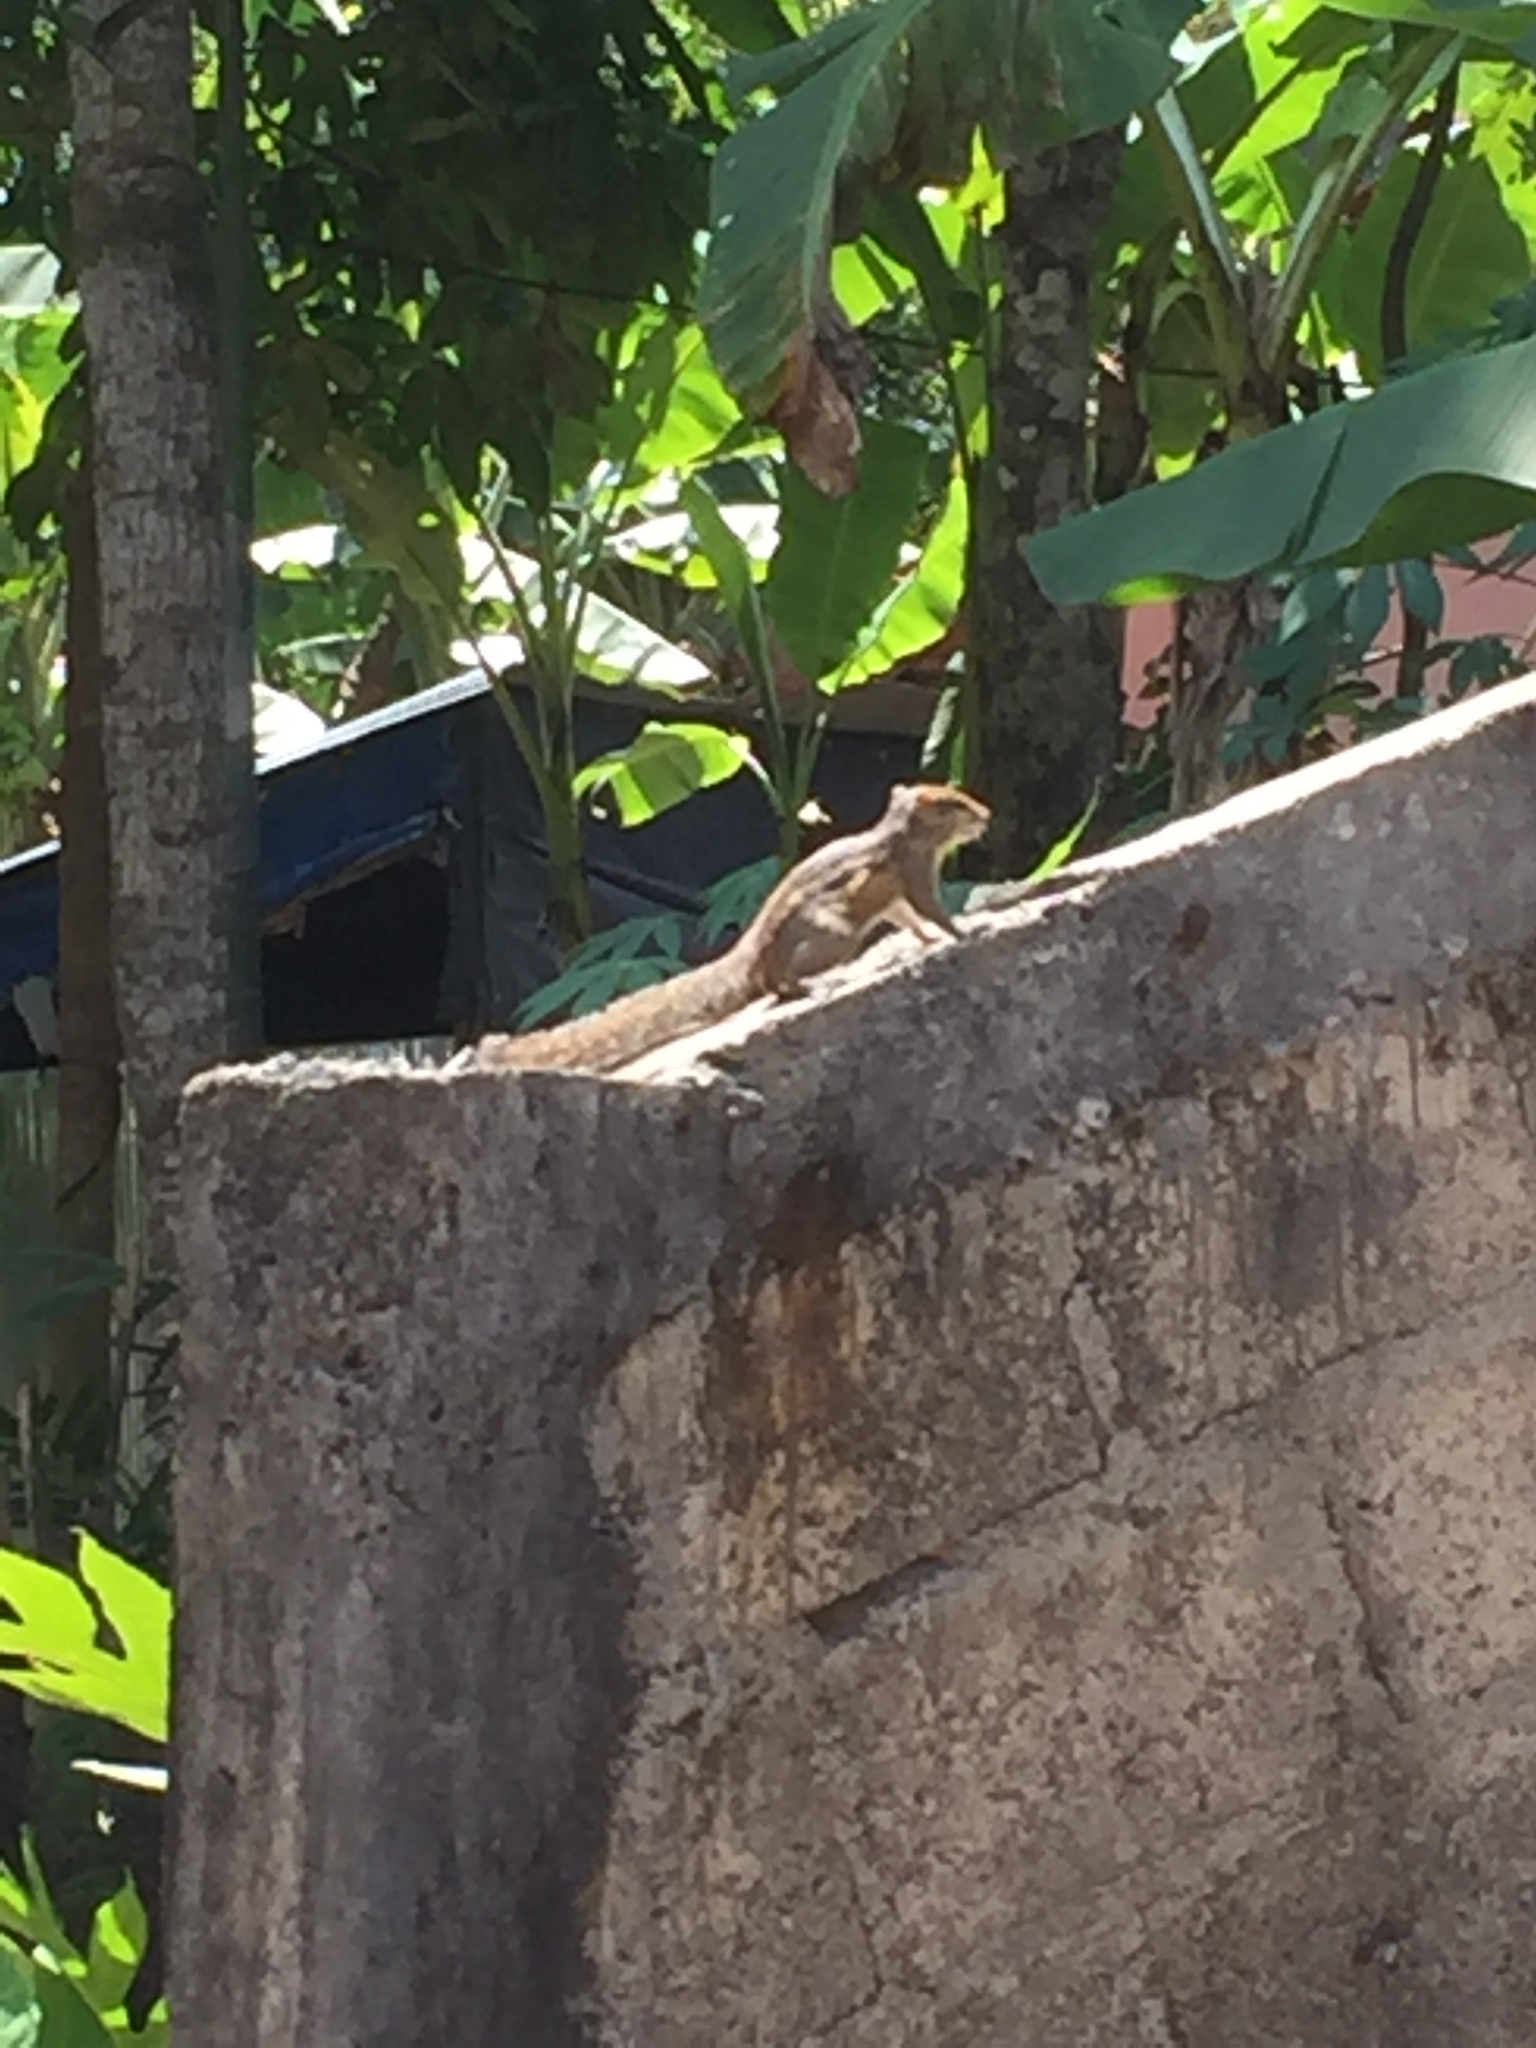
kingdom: Animalia
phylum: Chordata
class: Mammalia
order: Rodentia
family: Sciuridae
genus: Funambulus
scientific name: Funambulus palmarum
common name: Indian palm squirrel
